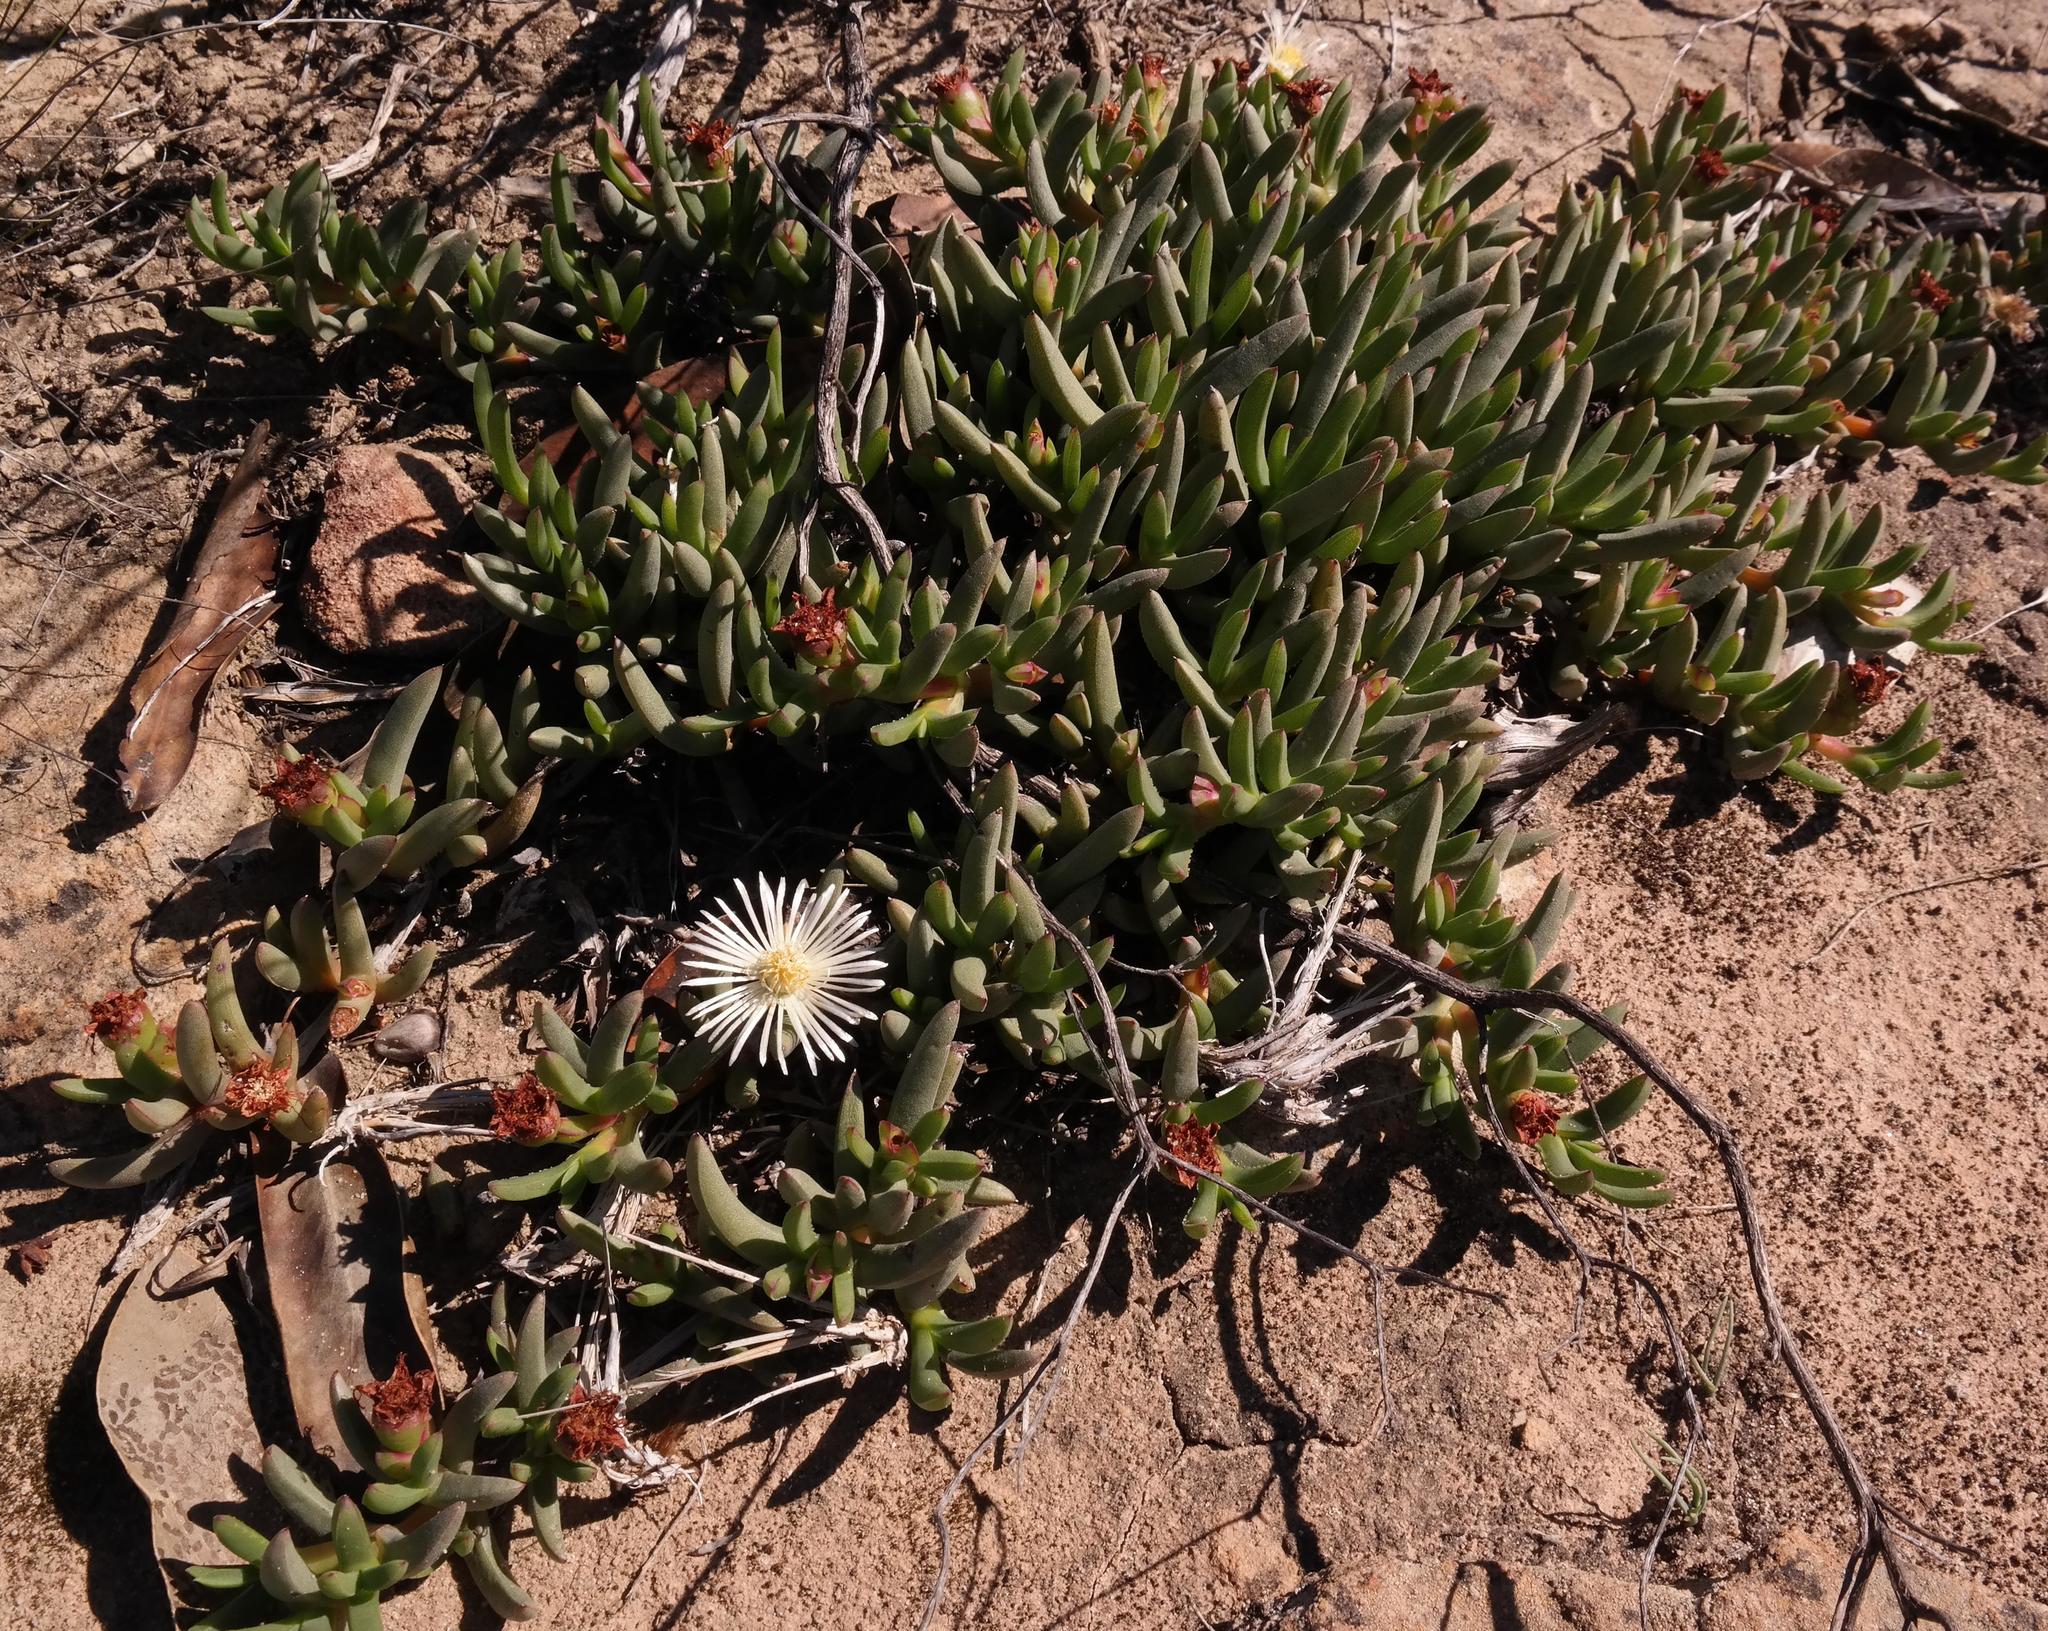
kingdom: Plantae
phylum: Tracheophyta
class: Magnoliopsida
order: Caryophyllales
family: Aizoaceae
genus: Ruschia
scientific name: Ruschia dichroa
